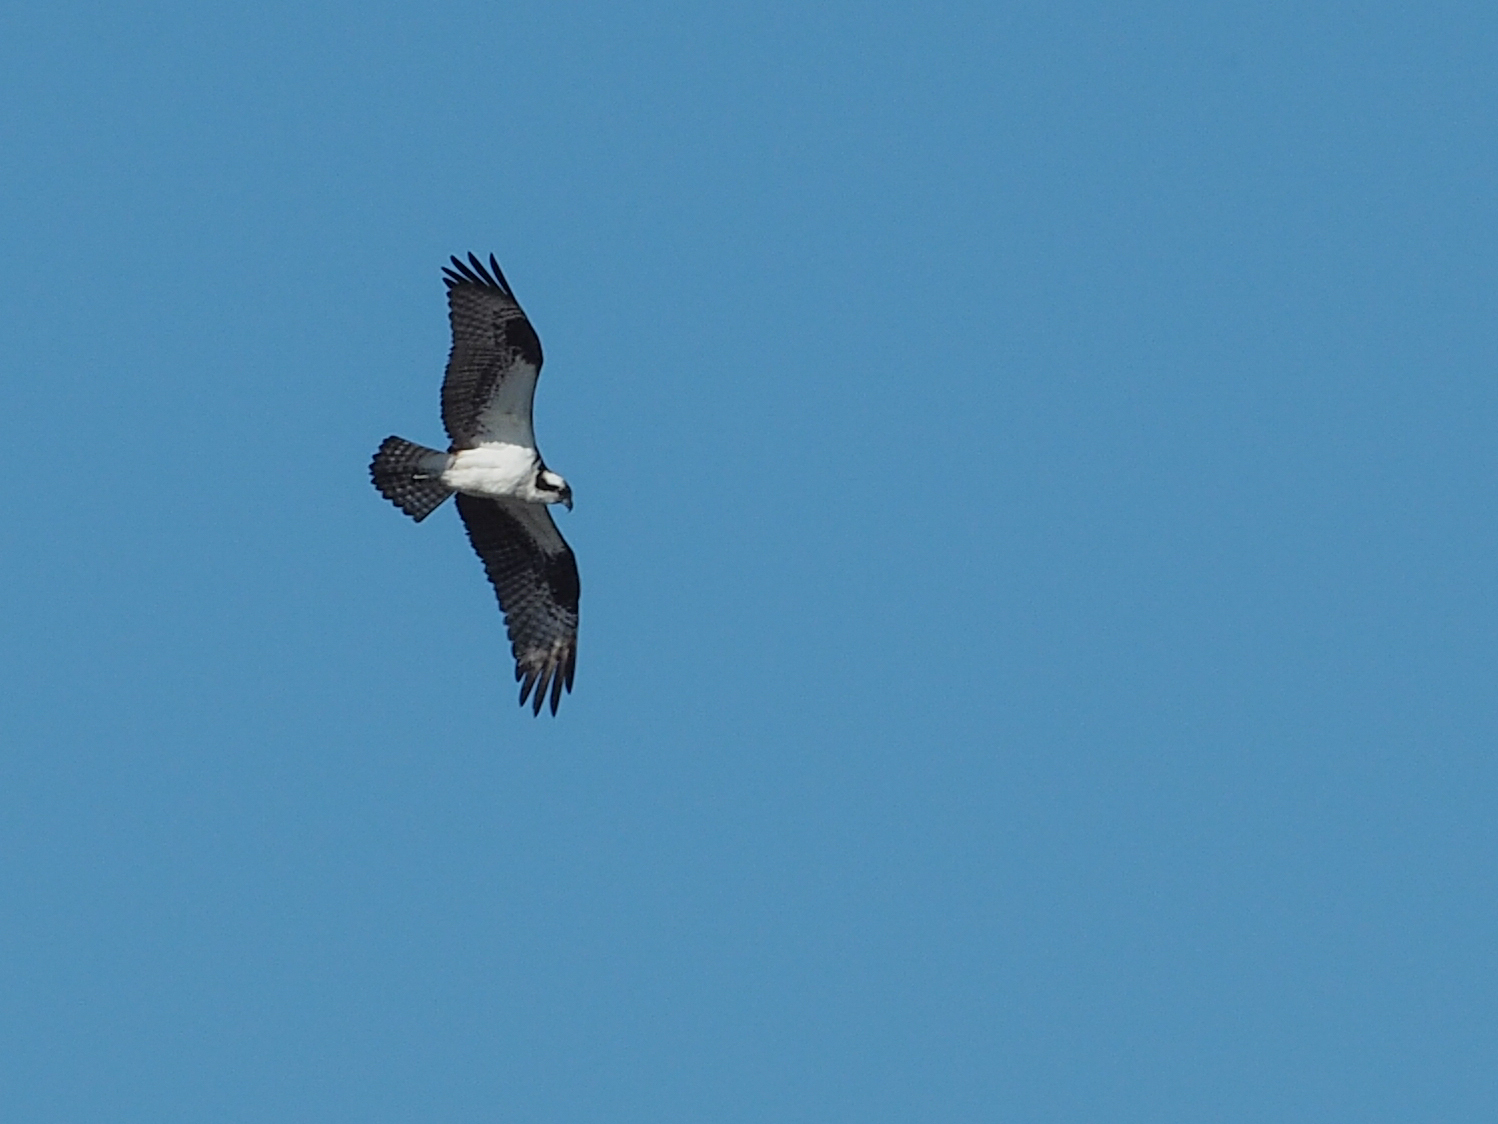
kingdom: Animalia
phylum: Chordata
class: Aves
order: Accipitriformes
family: Pandionidae
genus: Pandion
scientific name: Pandion haliaetus
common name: Osprey
